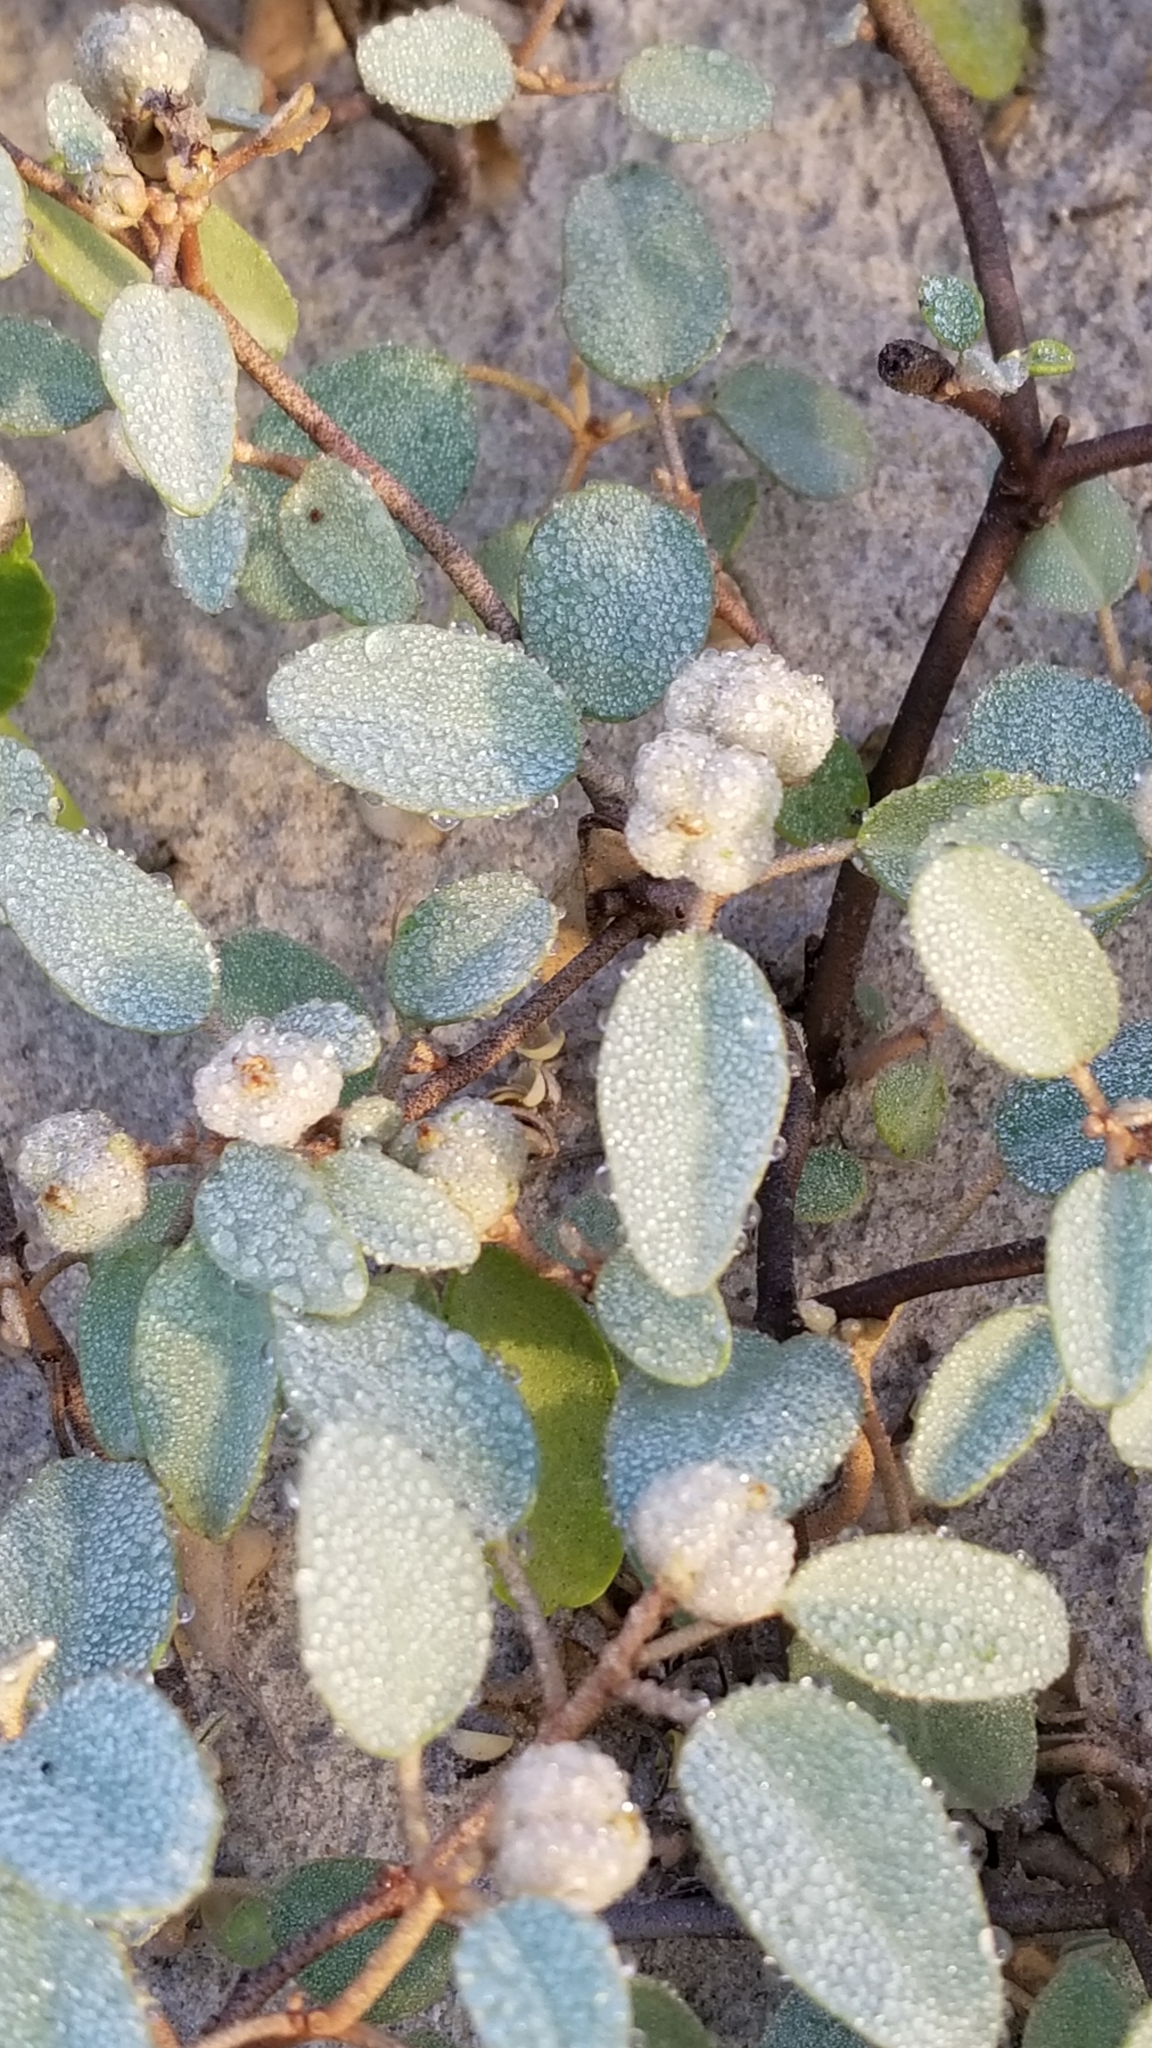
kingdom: Plantae
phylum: Tracheophyta
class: Magnoliopsida
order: Malpighiales
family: Euphorbiaceae
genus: Croton
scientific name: Croton punctatus
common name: Beach-tea
